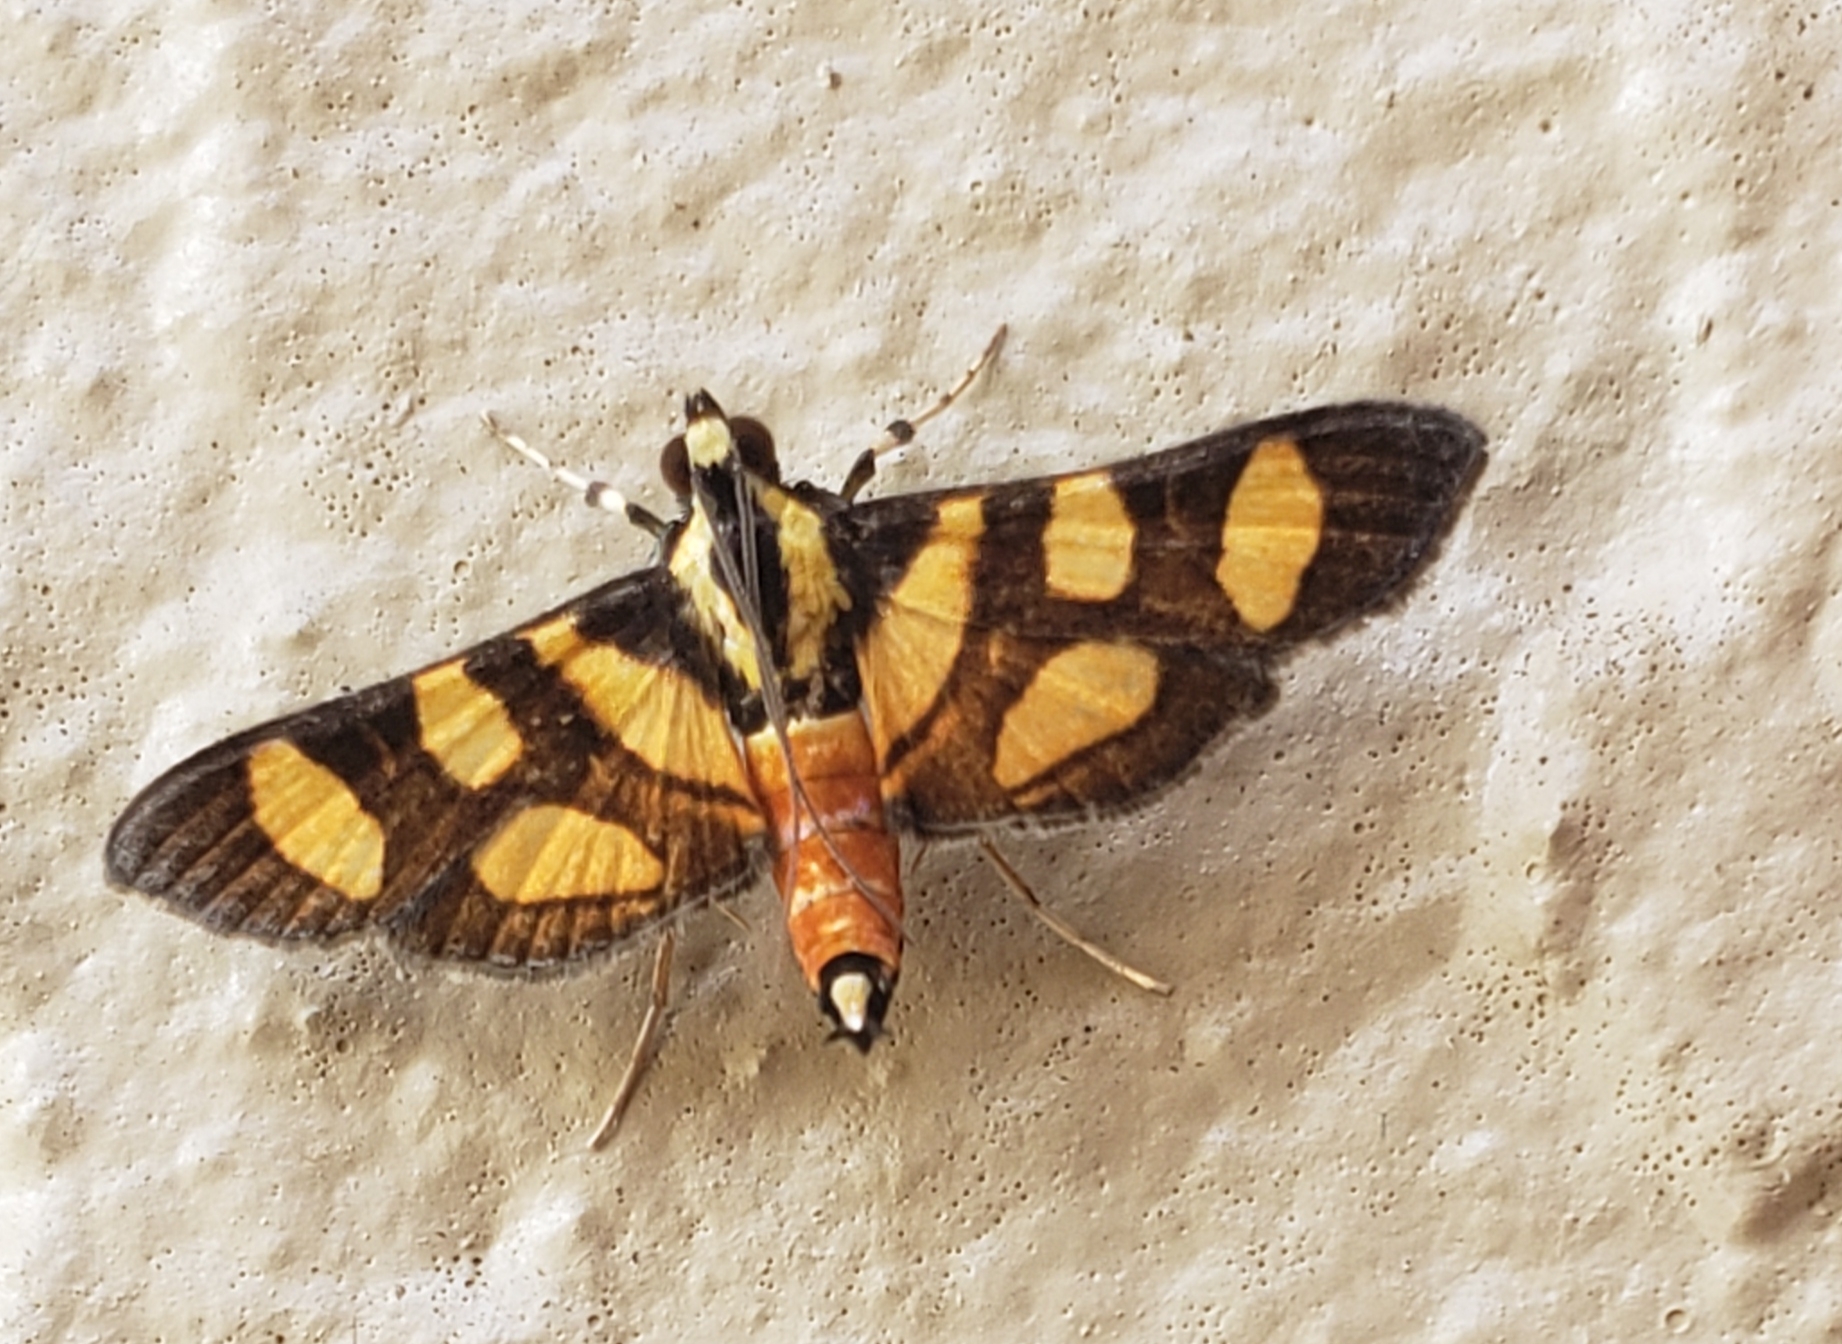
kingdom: Animalia
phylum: Arthropoda
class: Insecta
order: Lepidoptera
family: Crambidae
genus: Syngamia
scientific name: Syngamia florella
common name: Orange-spotted flower moth
